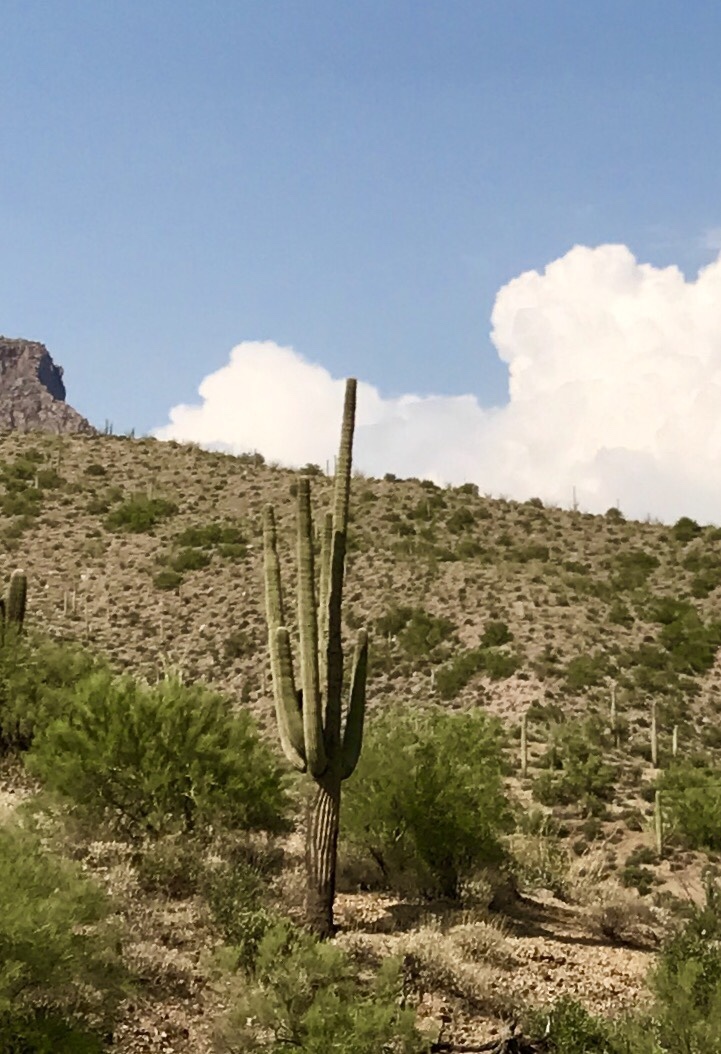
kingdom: Plantae
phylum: Tracheophyta
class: Magnoliopsida
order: Caryophyllales
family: Cactaceae
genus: Carnegiea
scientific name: Carnegiea gigantea
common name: Saguaro
